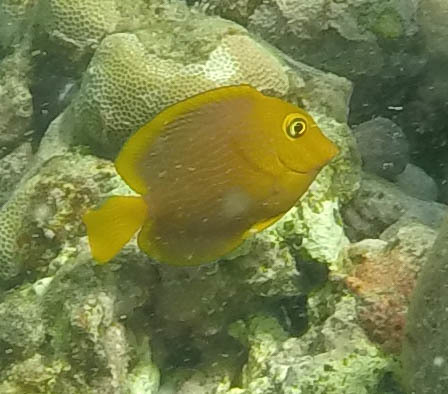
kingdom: Animalia
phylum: Chordata
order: Perciformes
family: Acanthuridae
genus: Ctenochaetus
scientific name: Ctenochaetus strigosus
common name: Bristletoothed surgeonfish
